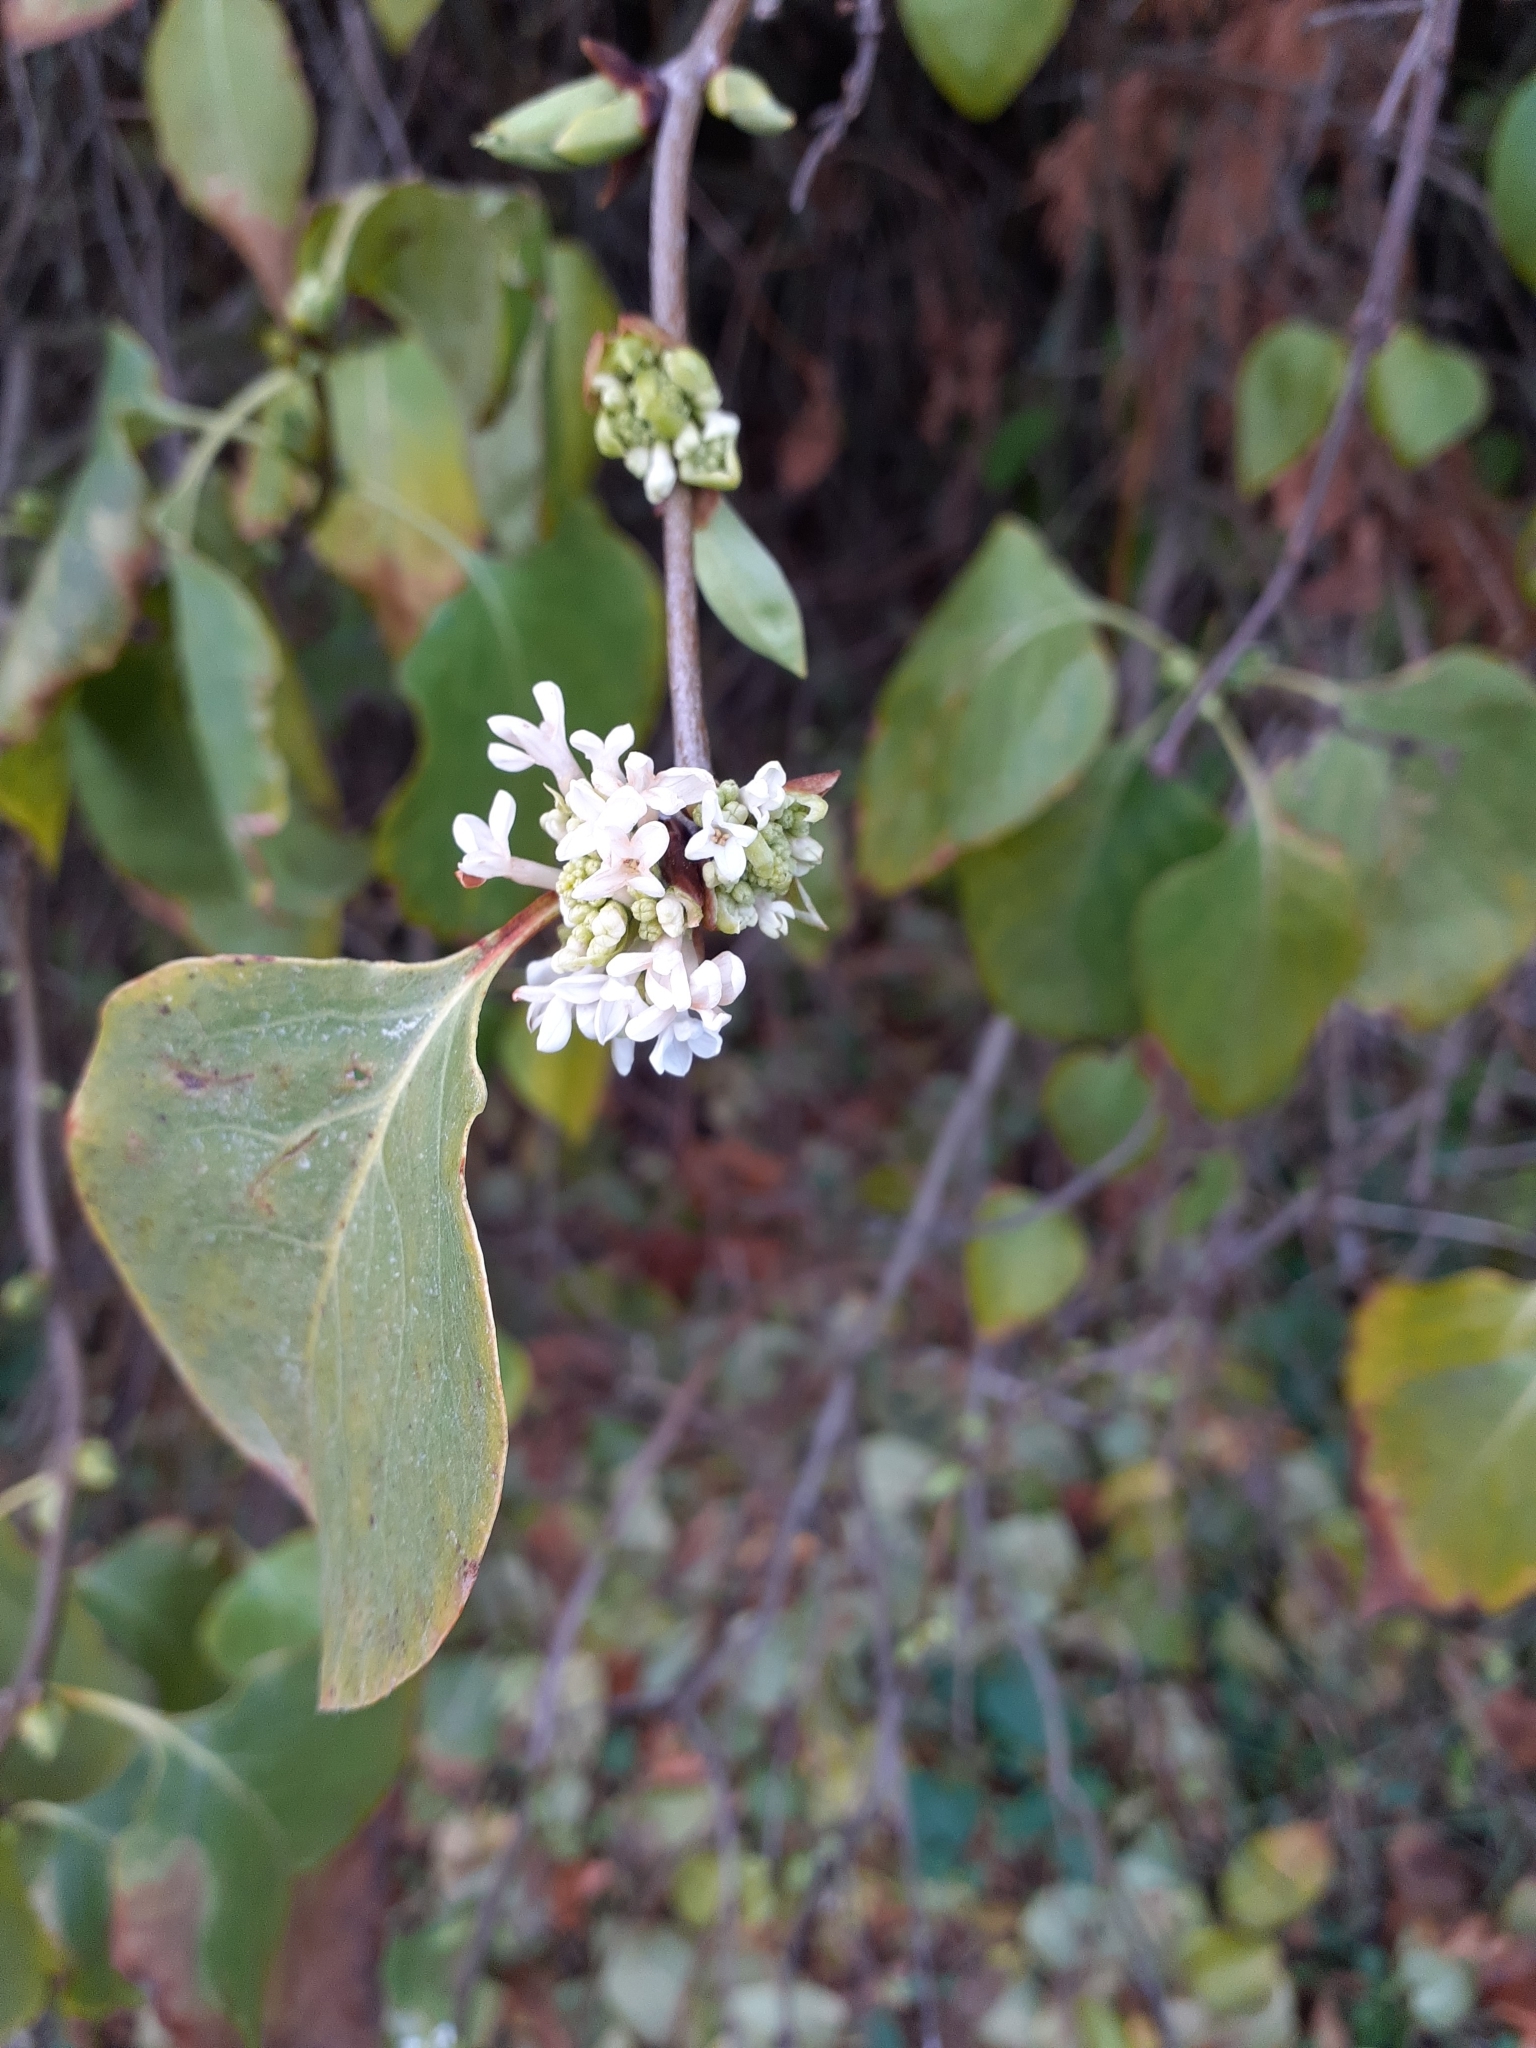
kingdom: Plantae
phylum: Tracheophyta
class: Magnoliopsida
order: Lamiales
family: Oleaceae
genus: Syringa
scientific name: Syringa vulgaris
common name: Common lilac
